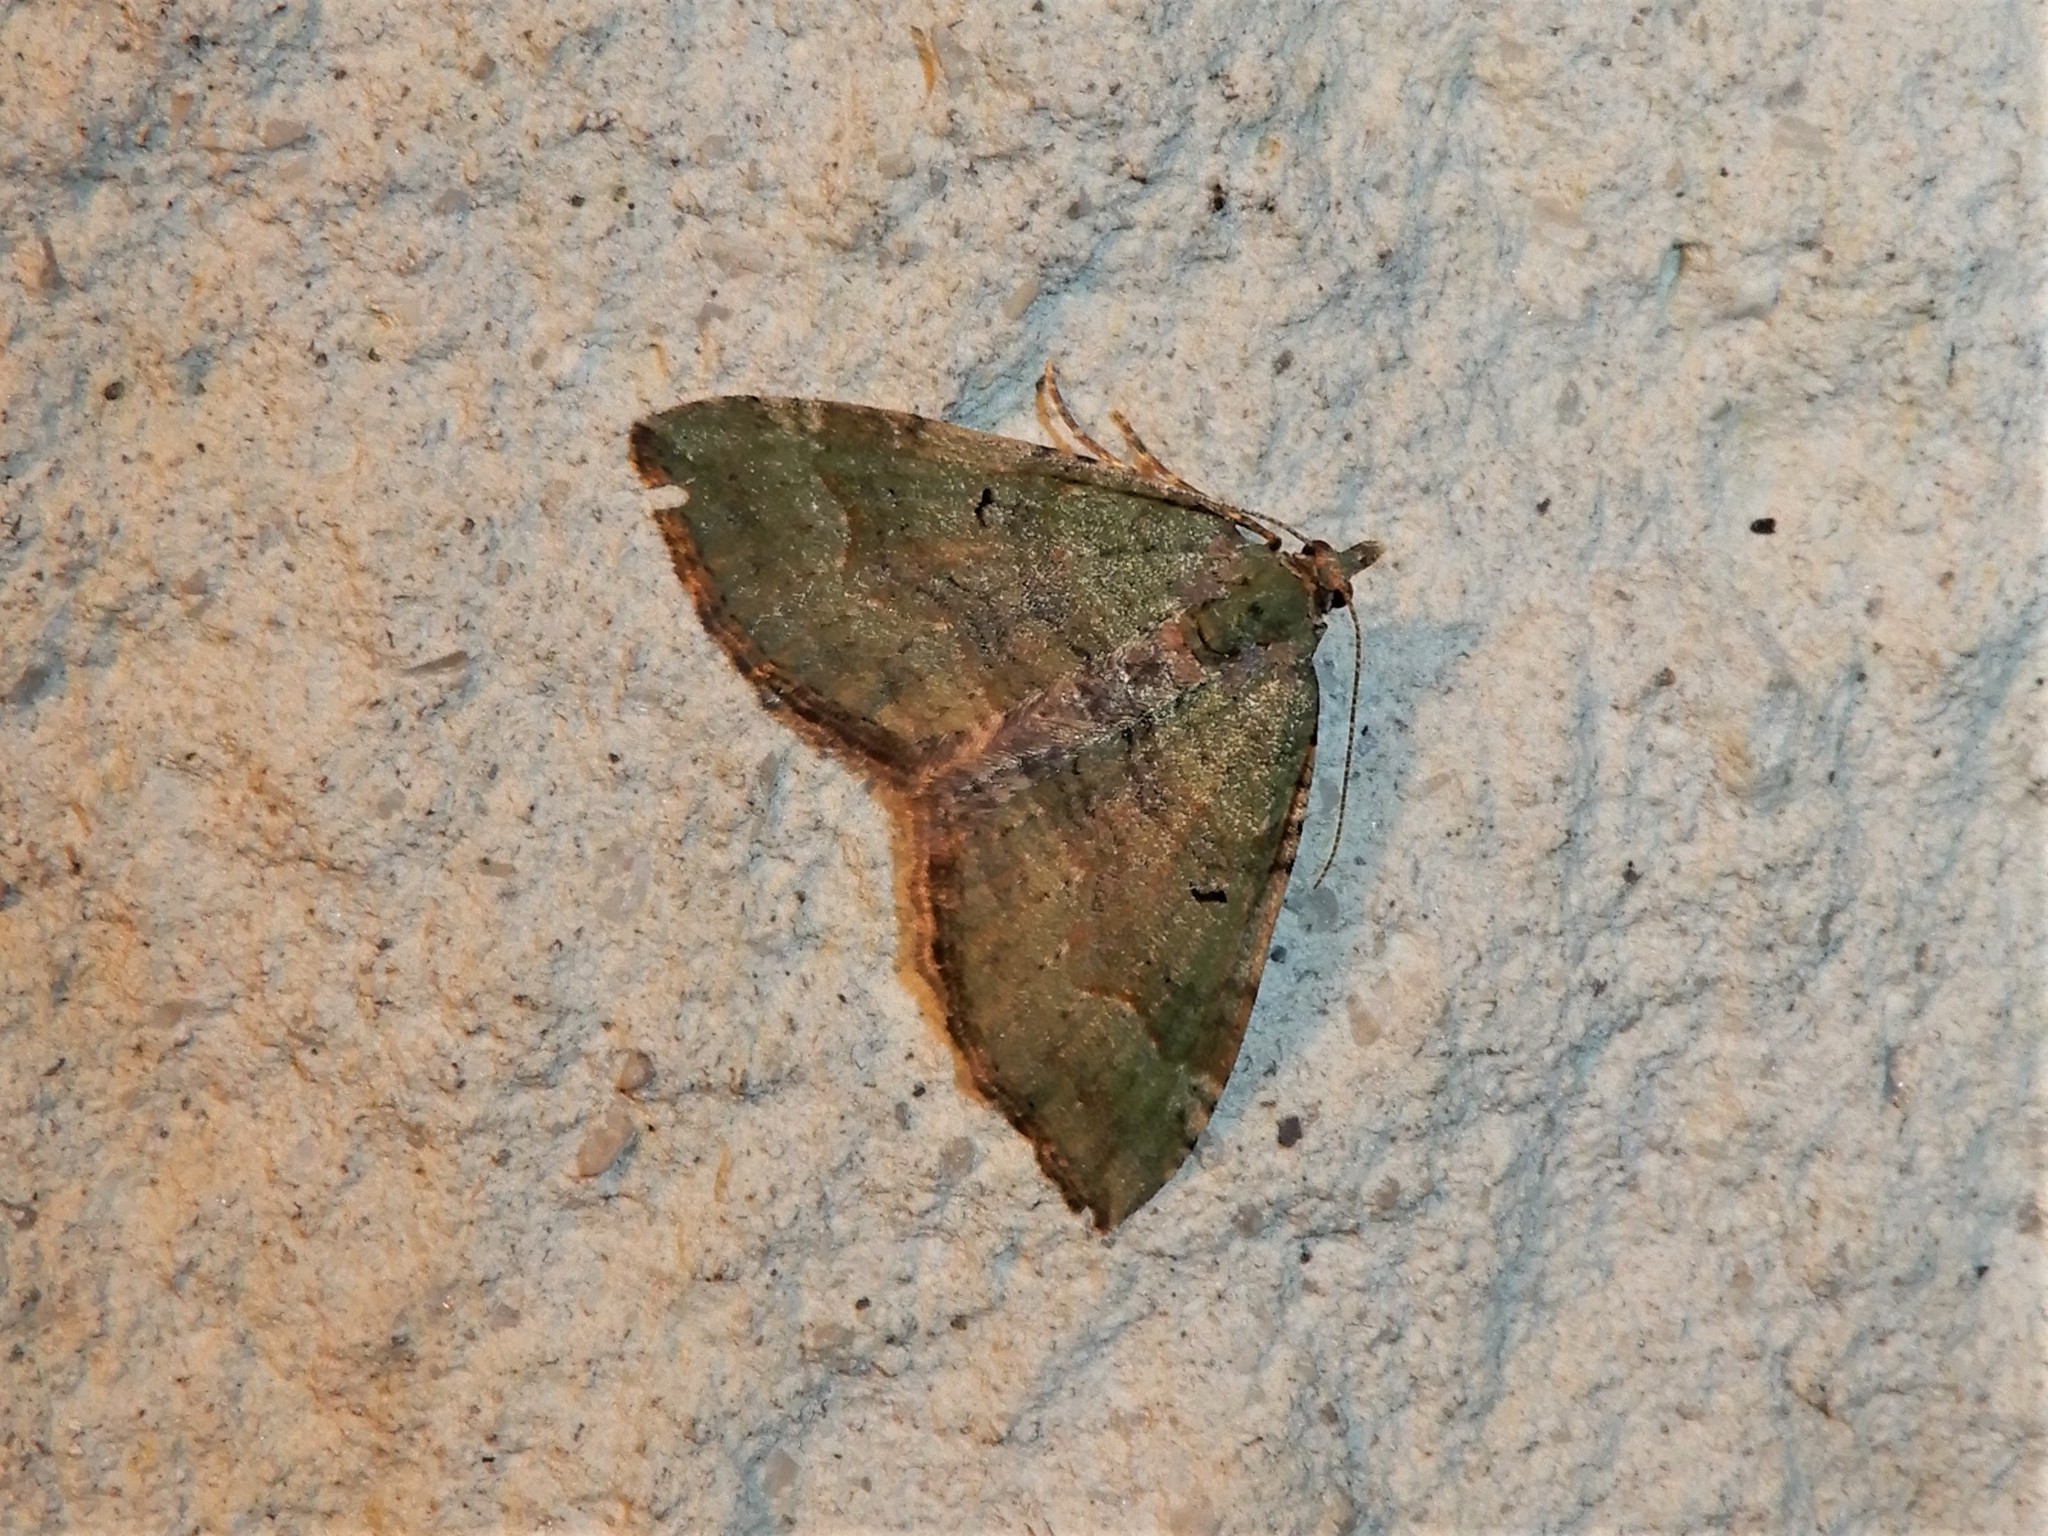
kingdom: Animalia
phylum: Arthropoda
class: Insecta
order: Lepidoptera
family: Geometridae
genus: Epyaxa
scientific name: Epyaxa rosearia
